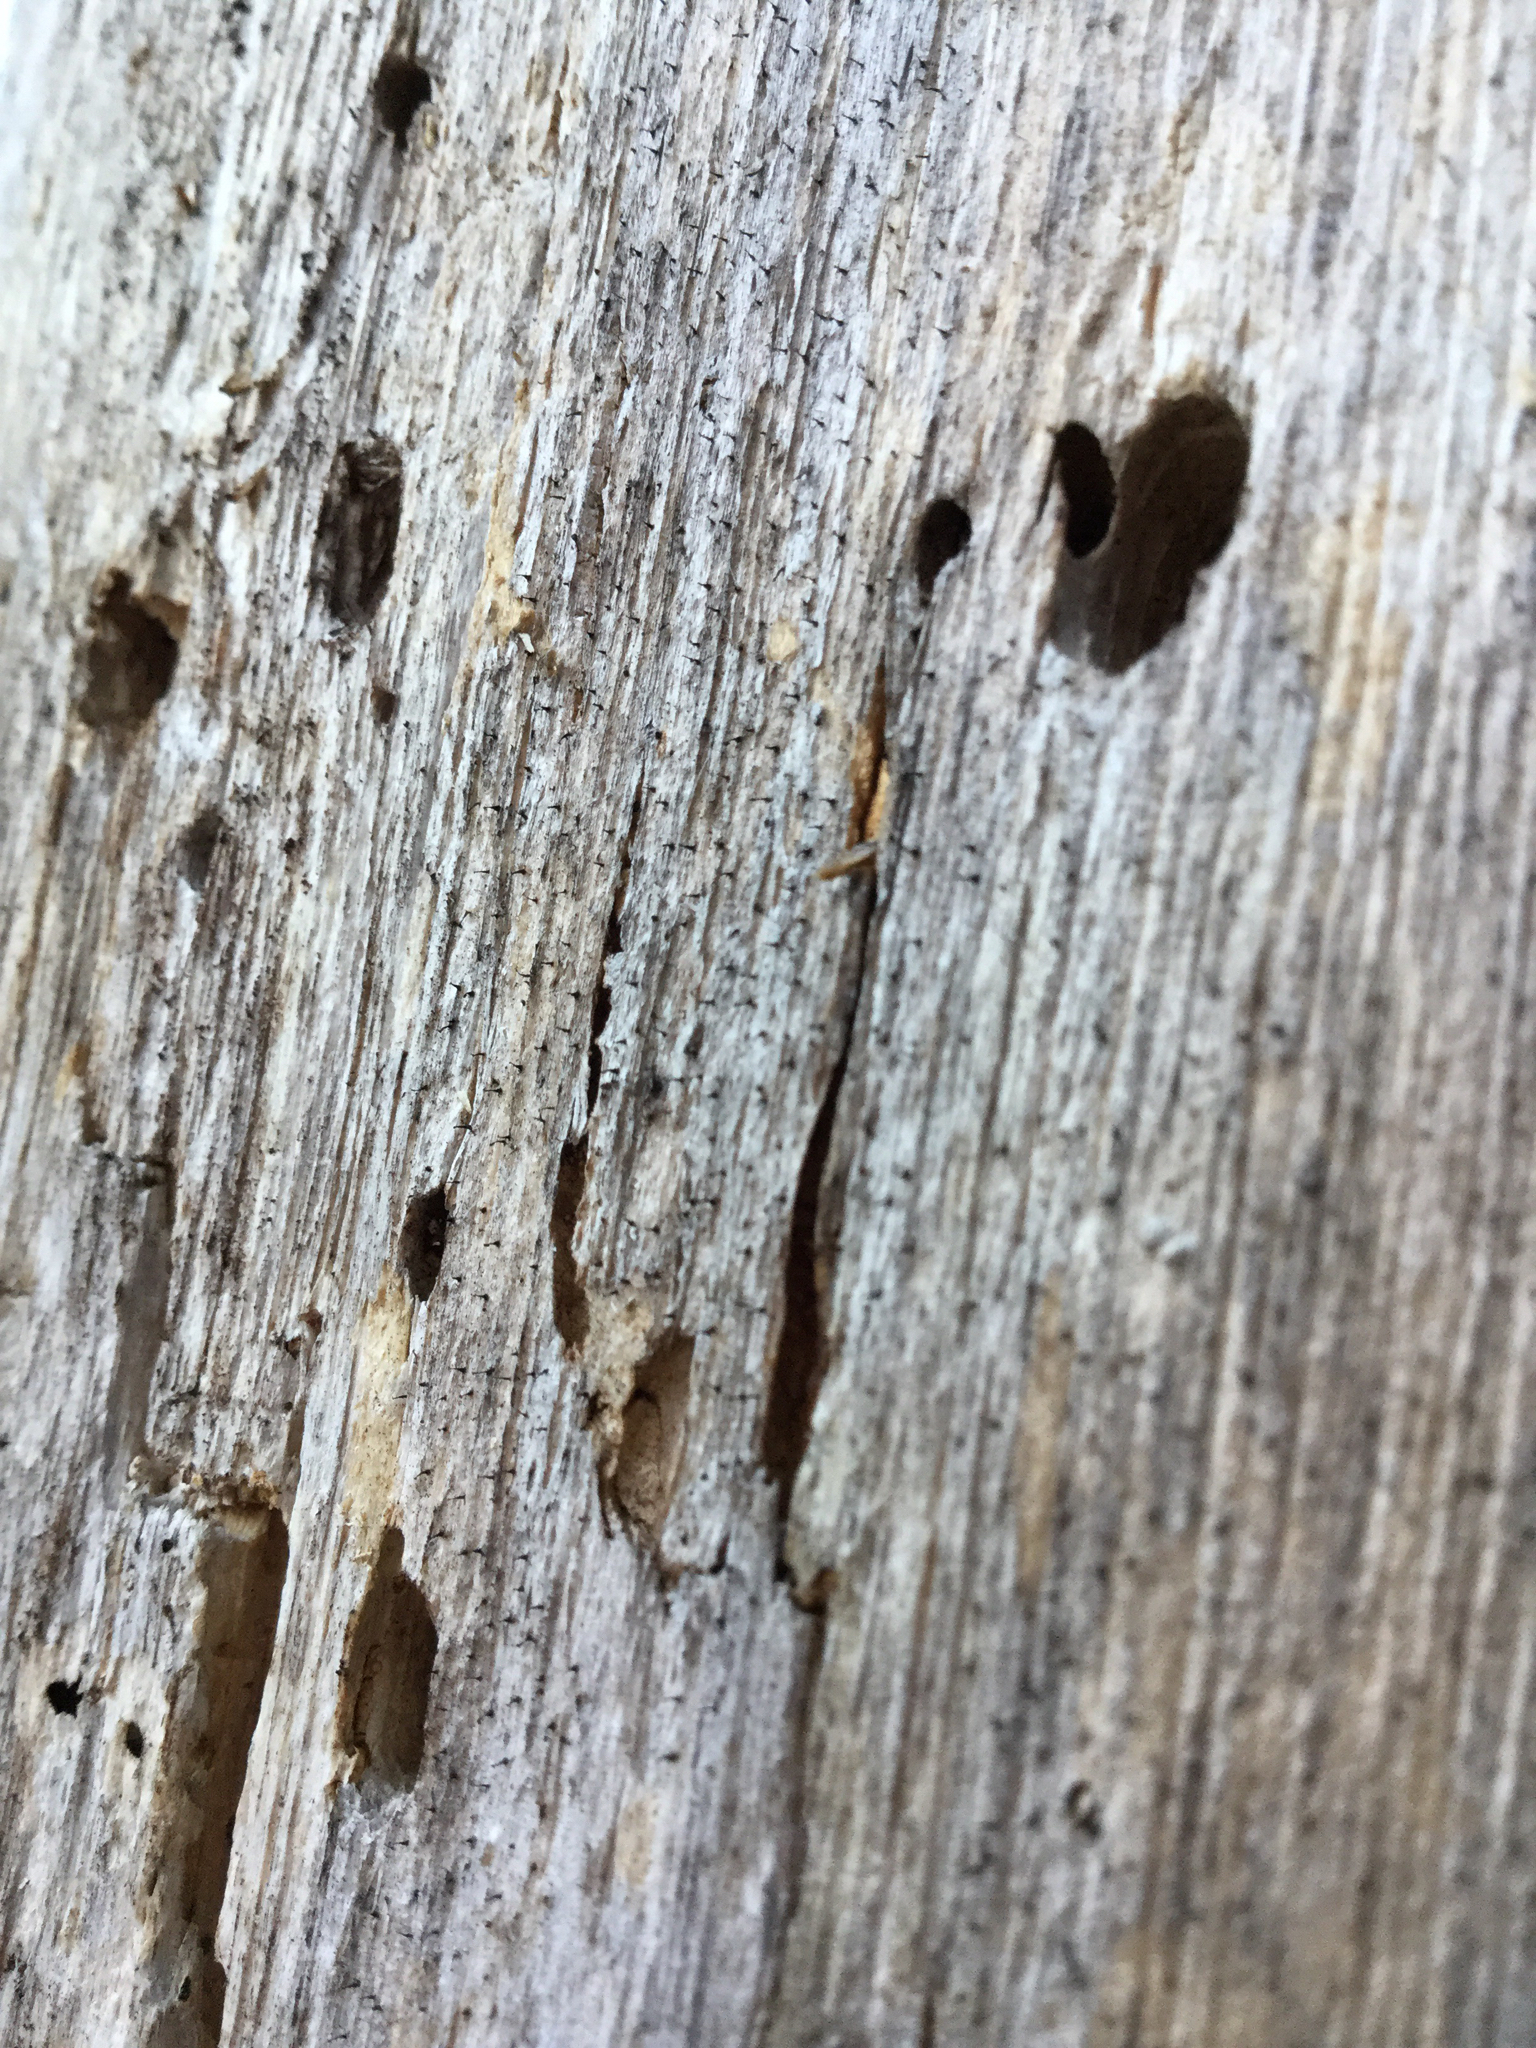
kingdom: Fungi
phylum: Ascomycota
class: Eurotiomycetes
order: Mycocaliciales
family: Mycocaliciaceae
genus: Chaenothecopsis
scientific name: Chaenothecopsis debilis
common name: King pin
